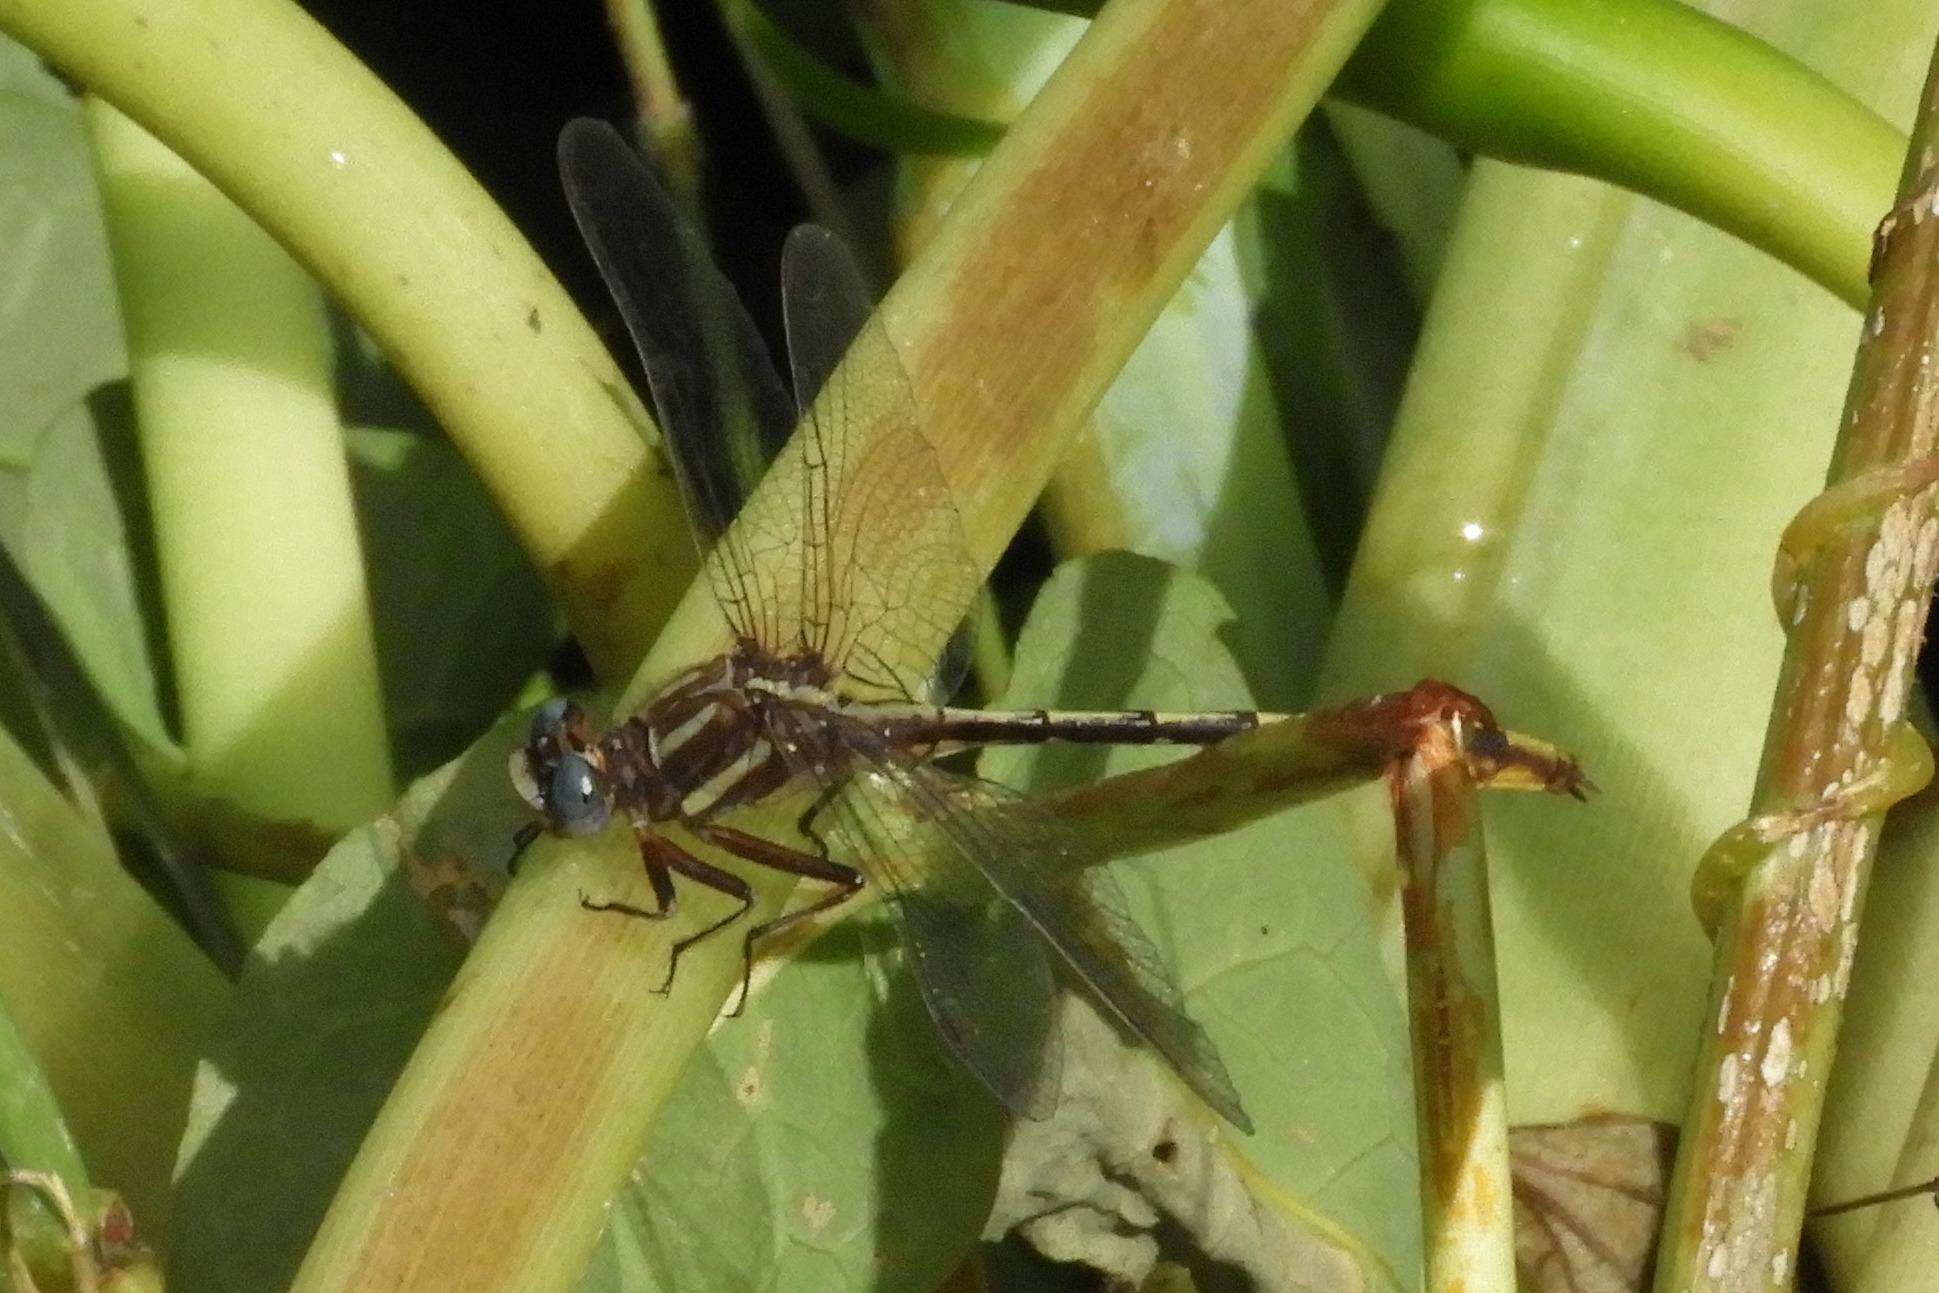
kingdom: Animalia
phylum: Arthropoda
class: Insecta
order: Odonata
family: Gomphidae
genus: Phanogomphus
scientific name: Phanogomphus exilis
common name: Lancet clubtail
